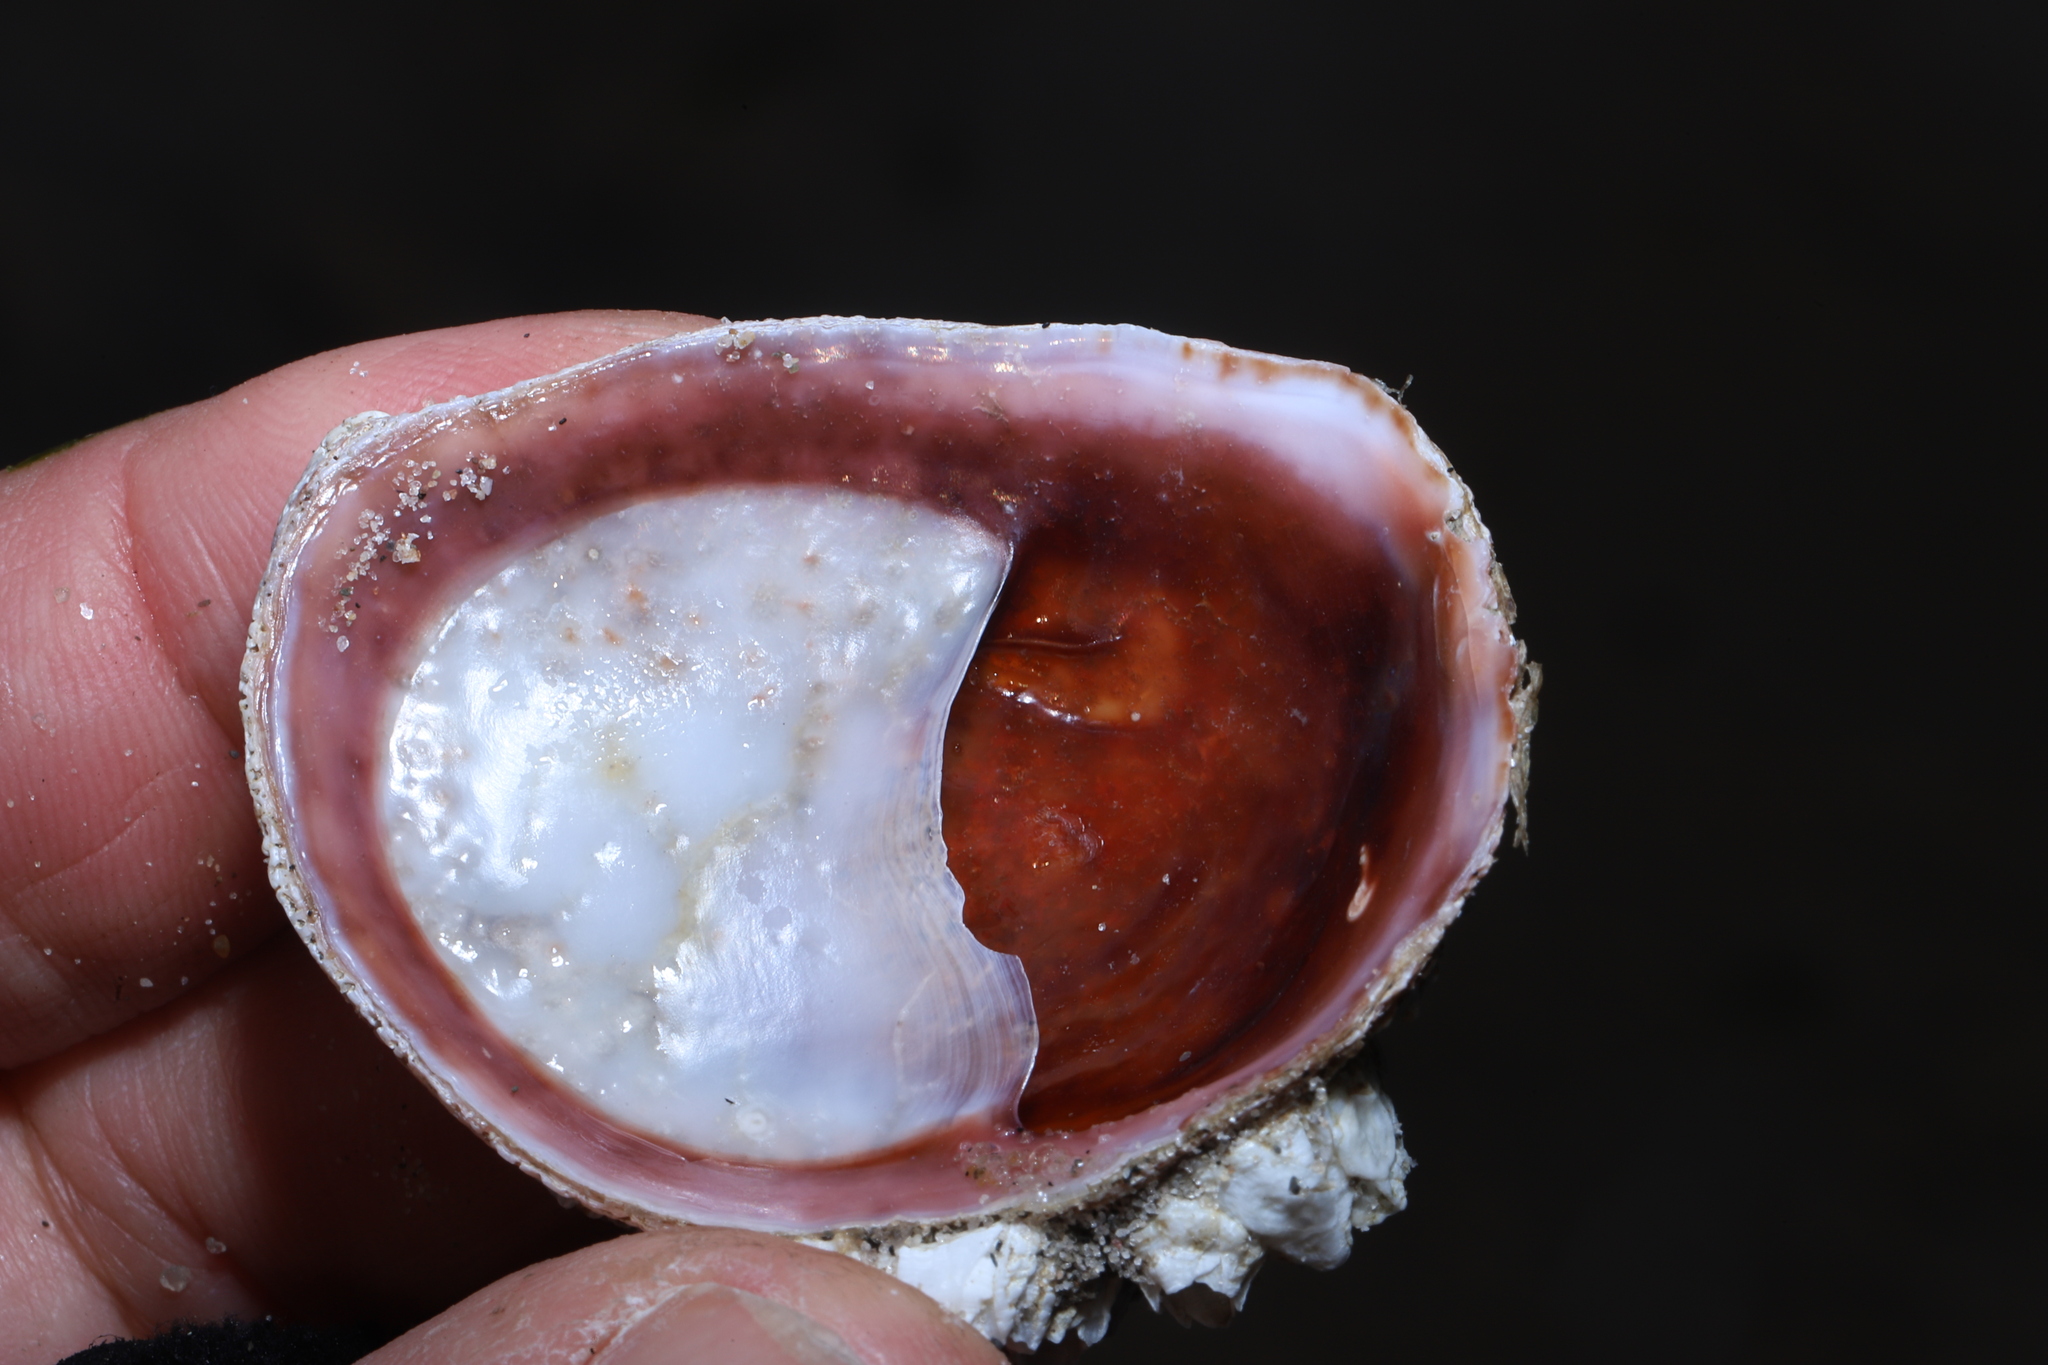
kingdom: Animalia
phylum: Mollusca
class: Gastropoda
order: Littorinimorpha
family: Calyptraeidae
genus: Crepidula
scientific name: Crepidula fornicata
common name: Slipper limpet
